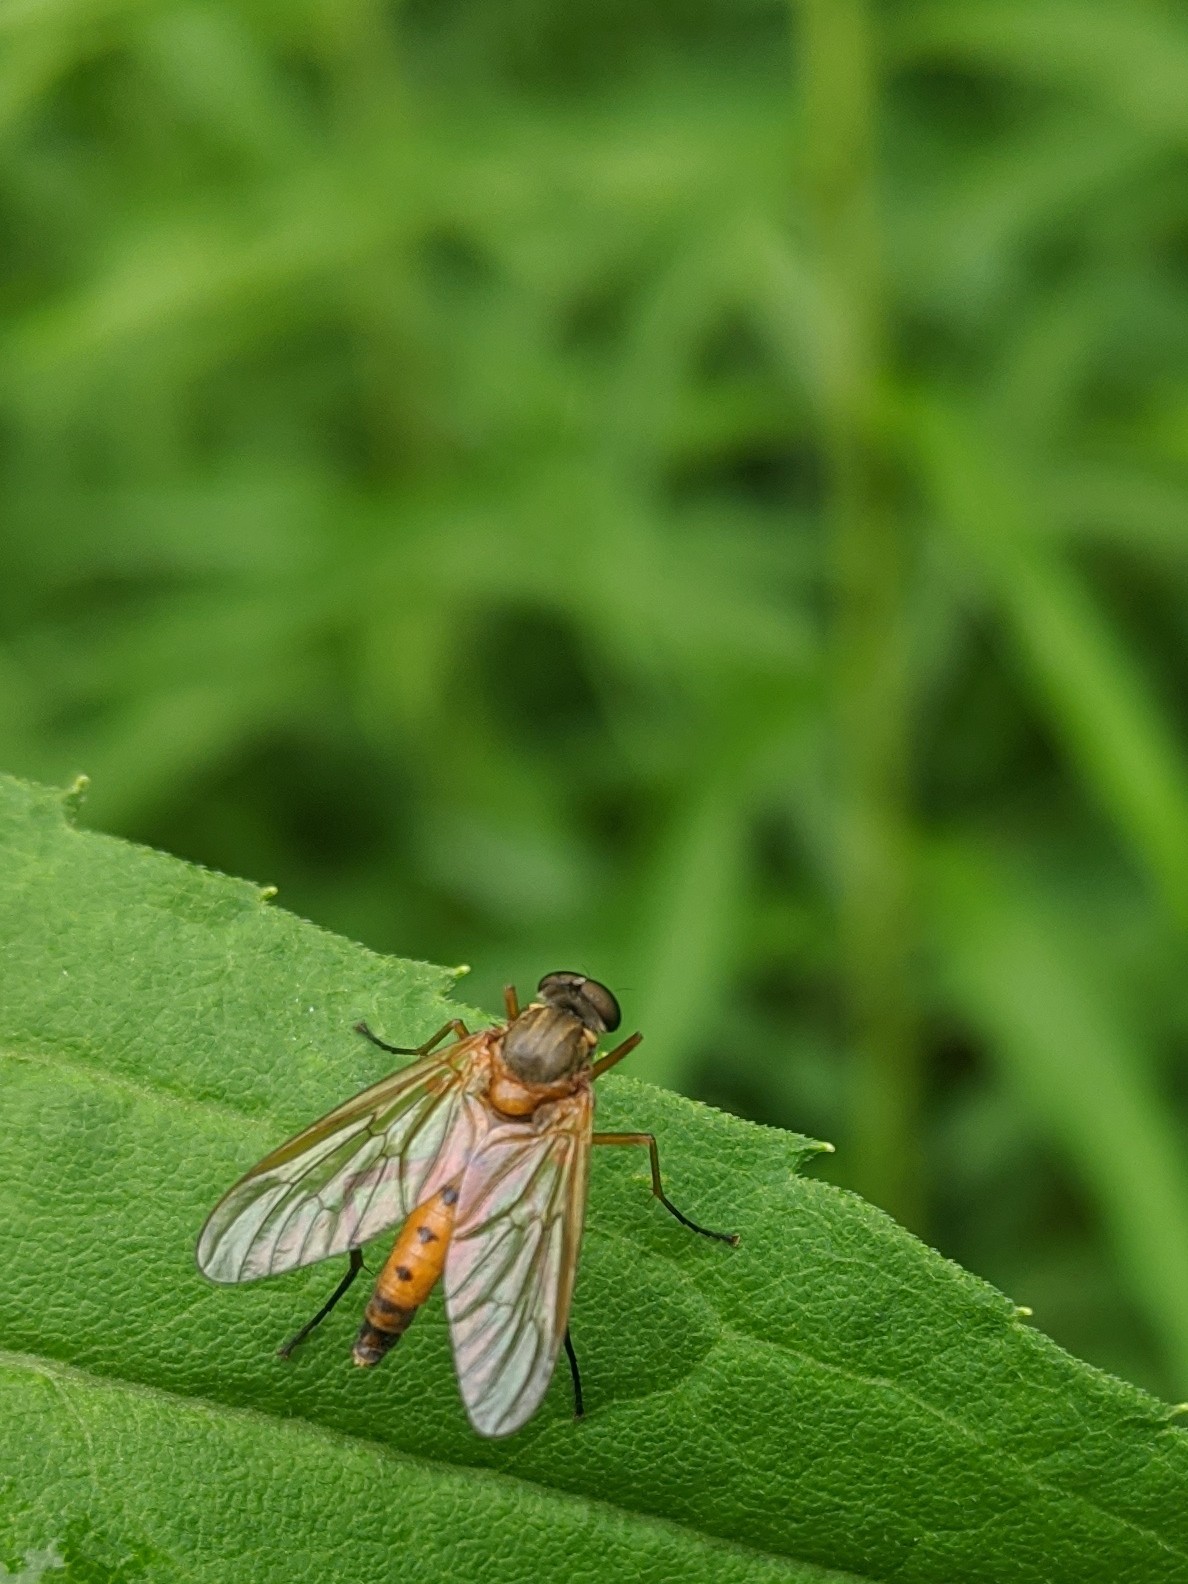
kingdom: Animalia
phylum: Arthropoda
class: Insecta
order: Diptera
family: Rhagionidae
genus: Rhagio
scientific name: Rhagio tringaria
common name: Marsh snipefly
